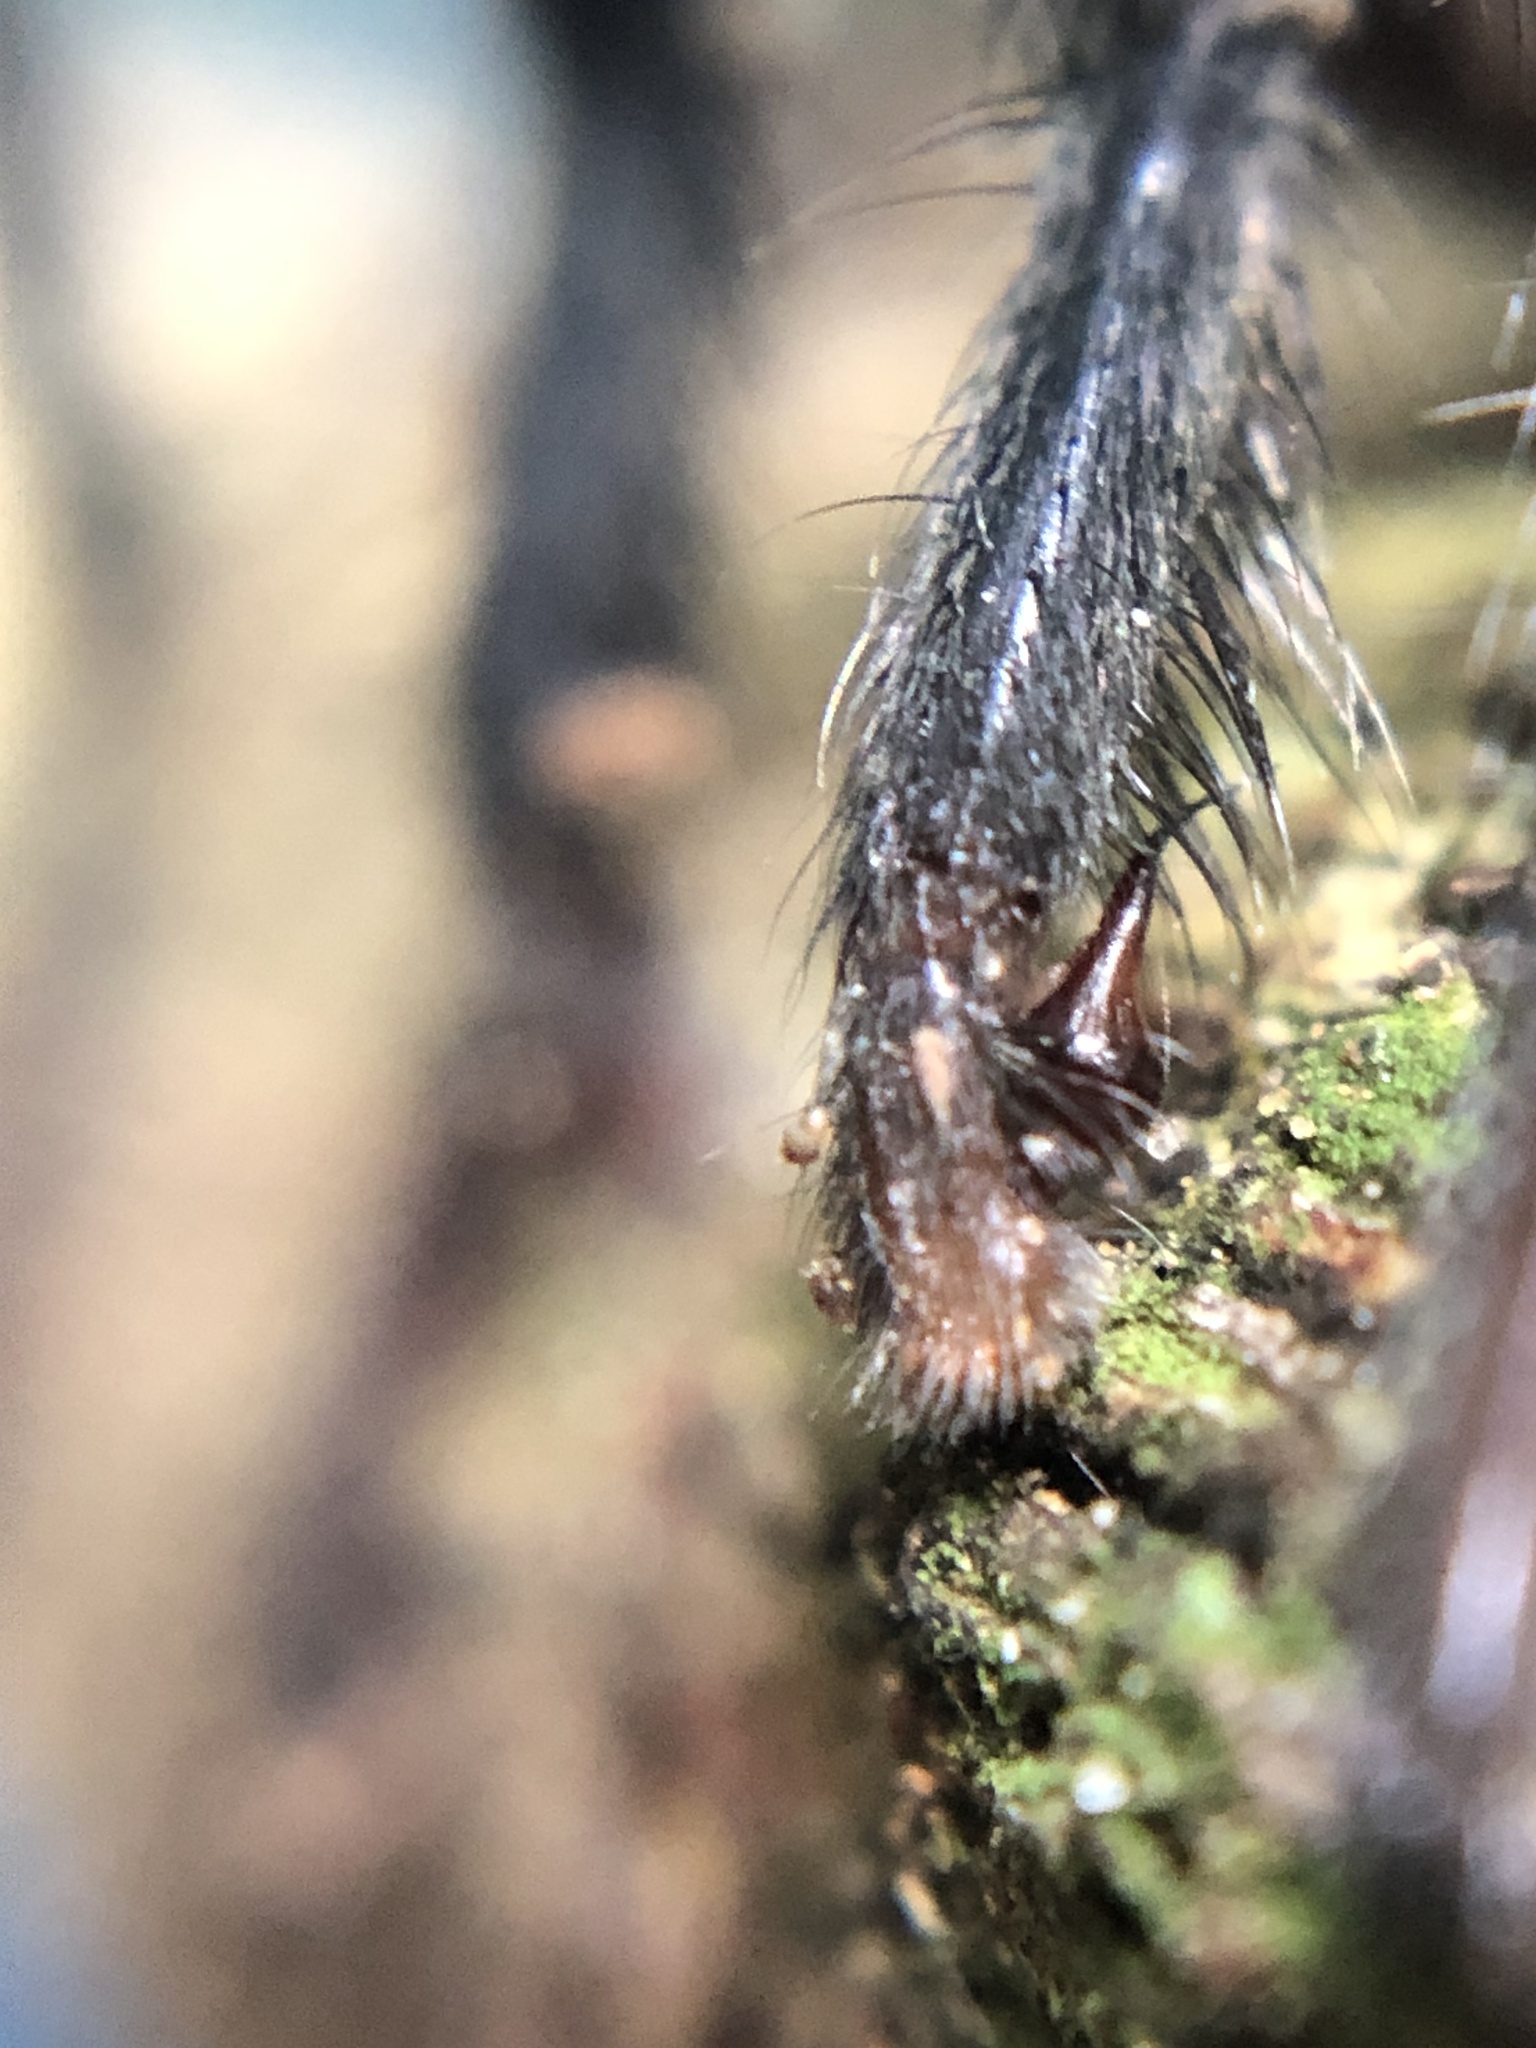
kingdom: Animalia
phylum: Arthropoda
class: Arachnida
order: Araneae
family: Dipluridae
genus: Linothele
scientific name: Linothele jelskii
